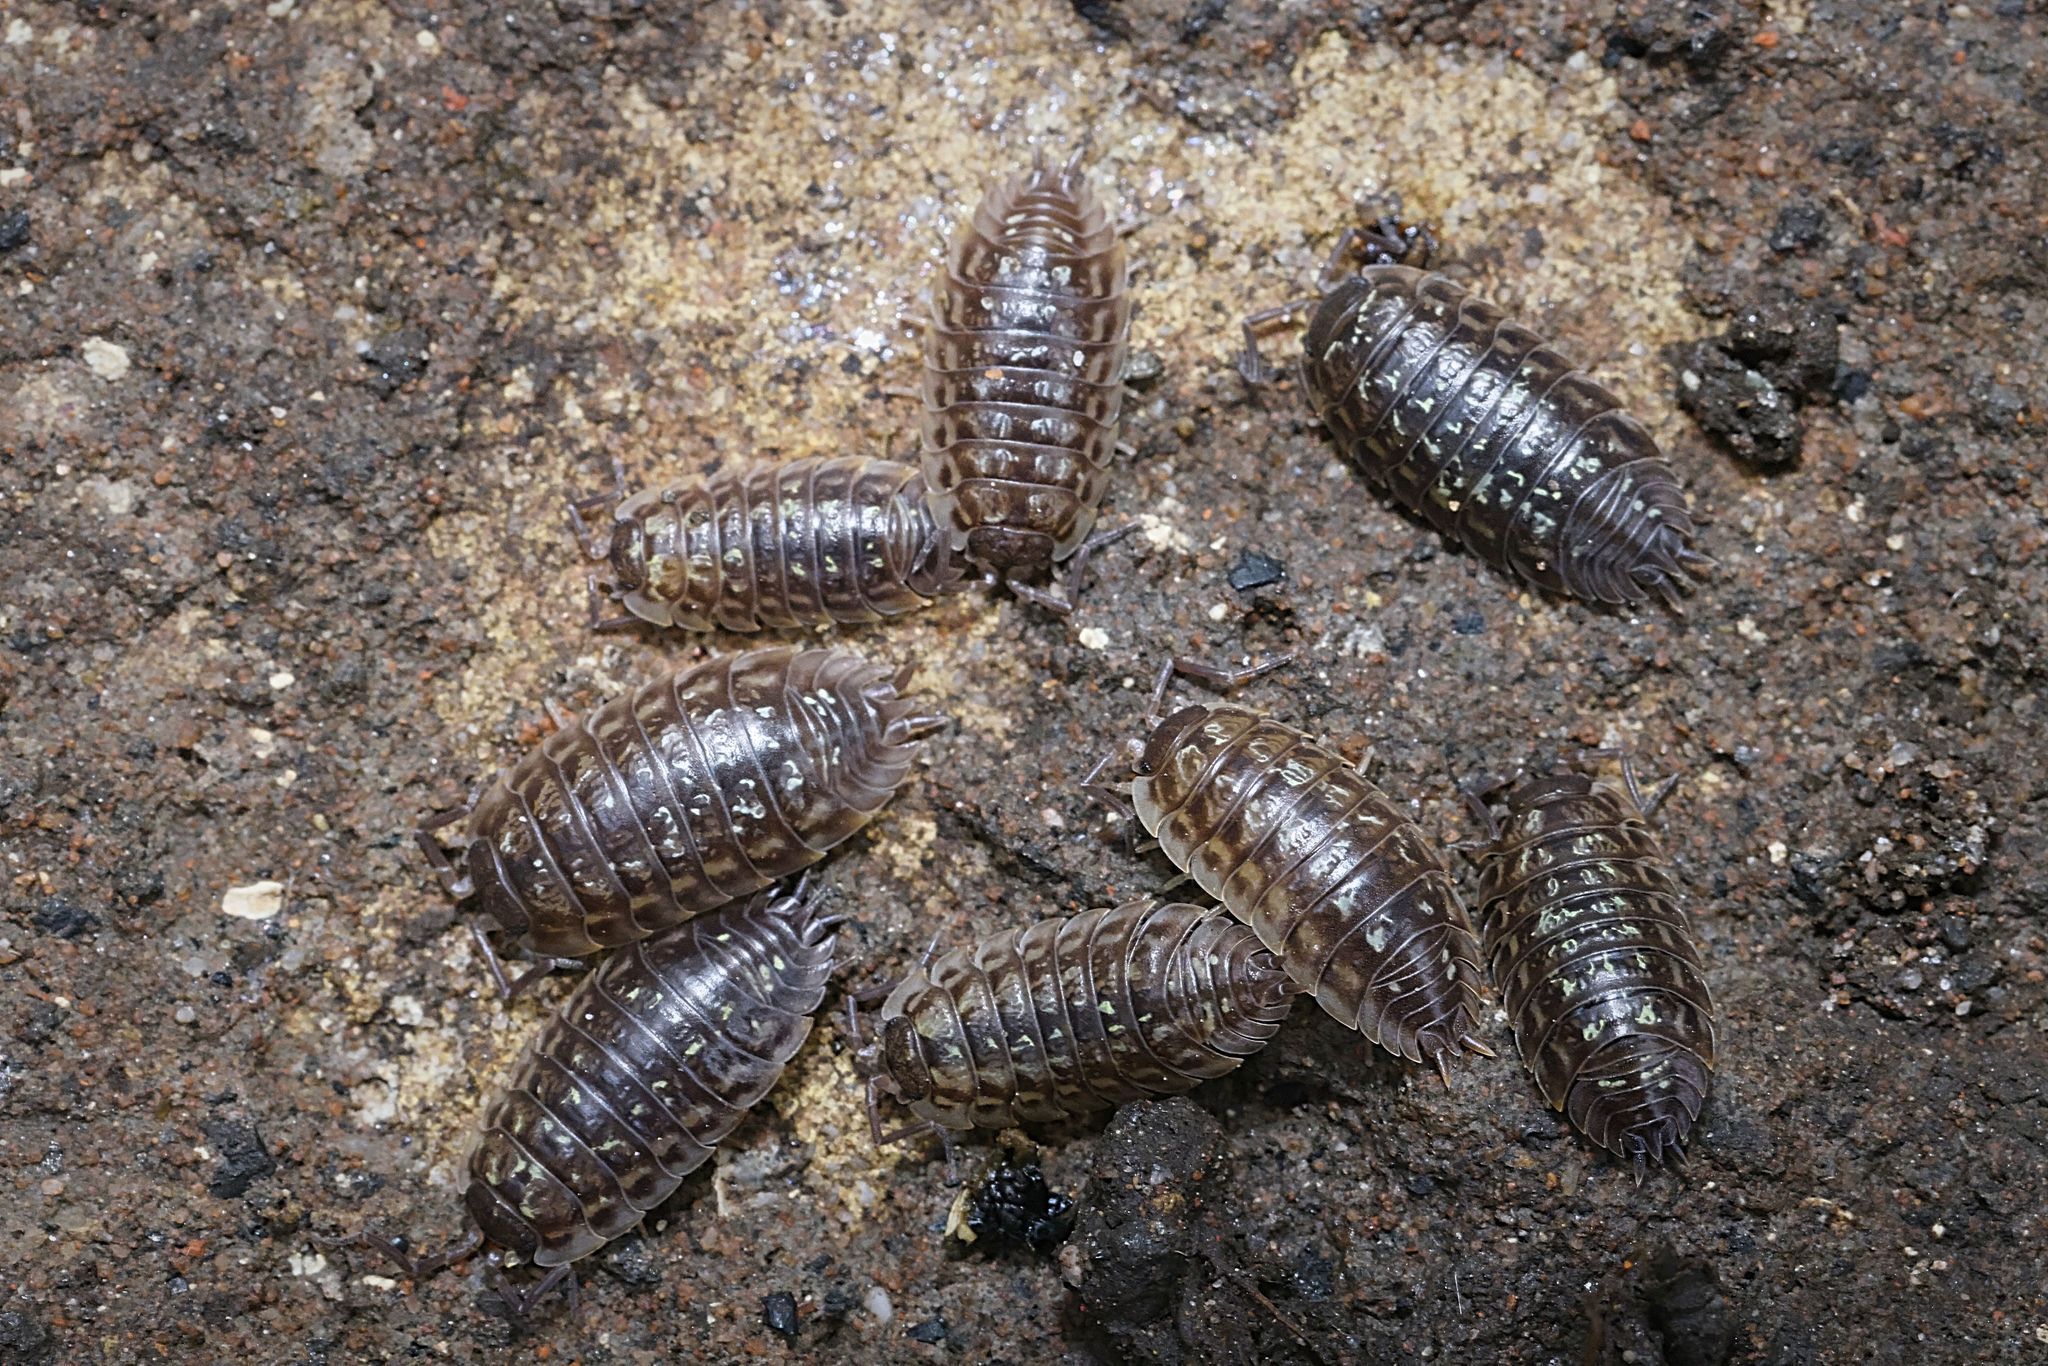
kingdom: Animalia
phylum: Arthropoda
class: Malacostraca
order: Isopoda
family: Oniscidae
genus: Oniscus
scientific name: Oniscus asellus
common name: Common shiny woodlouse
